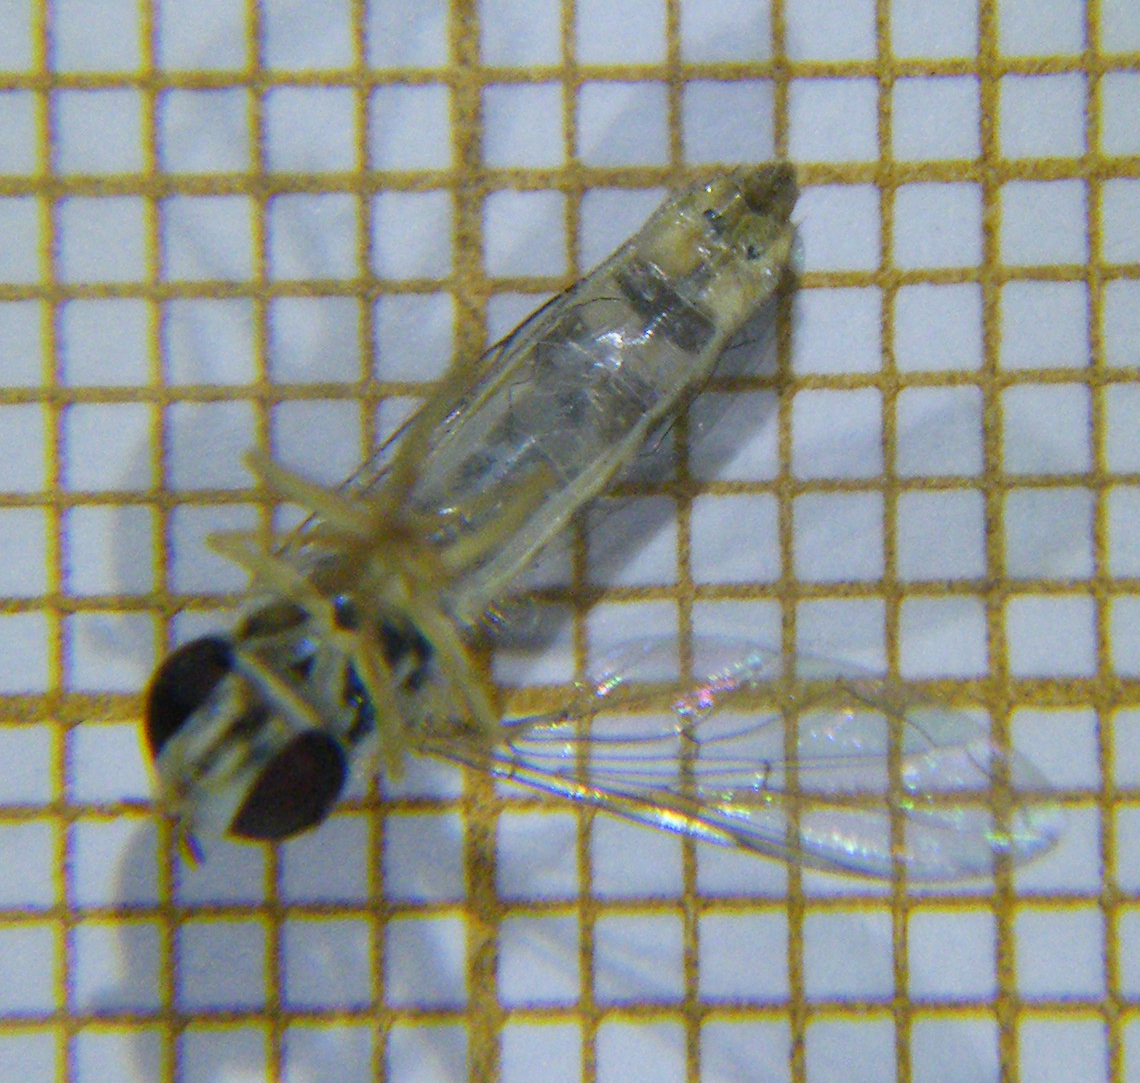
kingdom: Animalia
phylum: Arthropoda
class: Insecta
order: Diptera
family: Syrphidae
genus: Sphaerophoria
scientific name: Sphaerophoria
